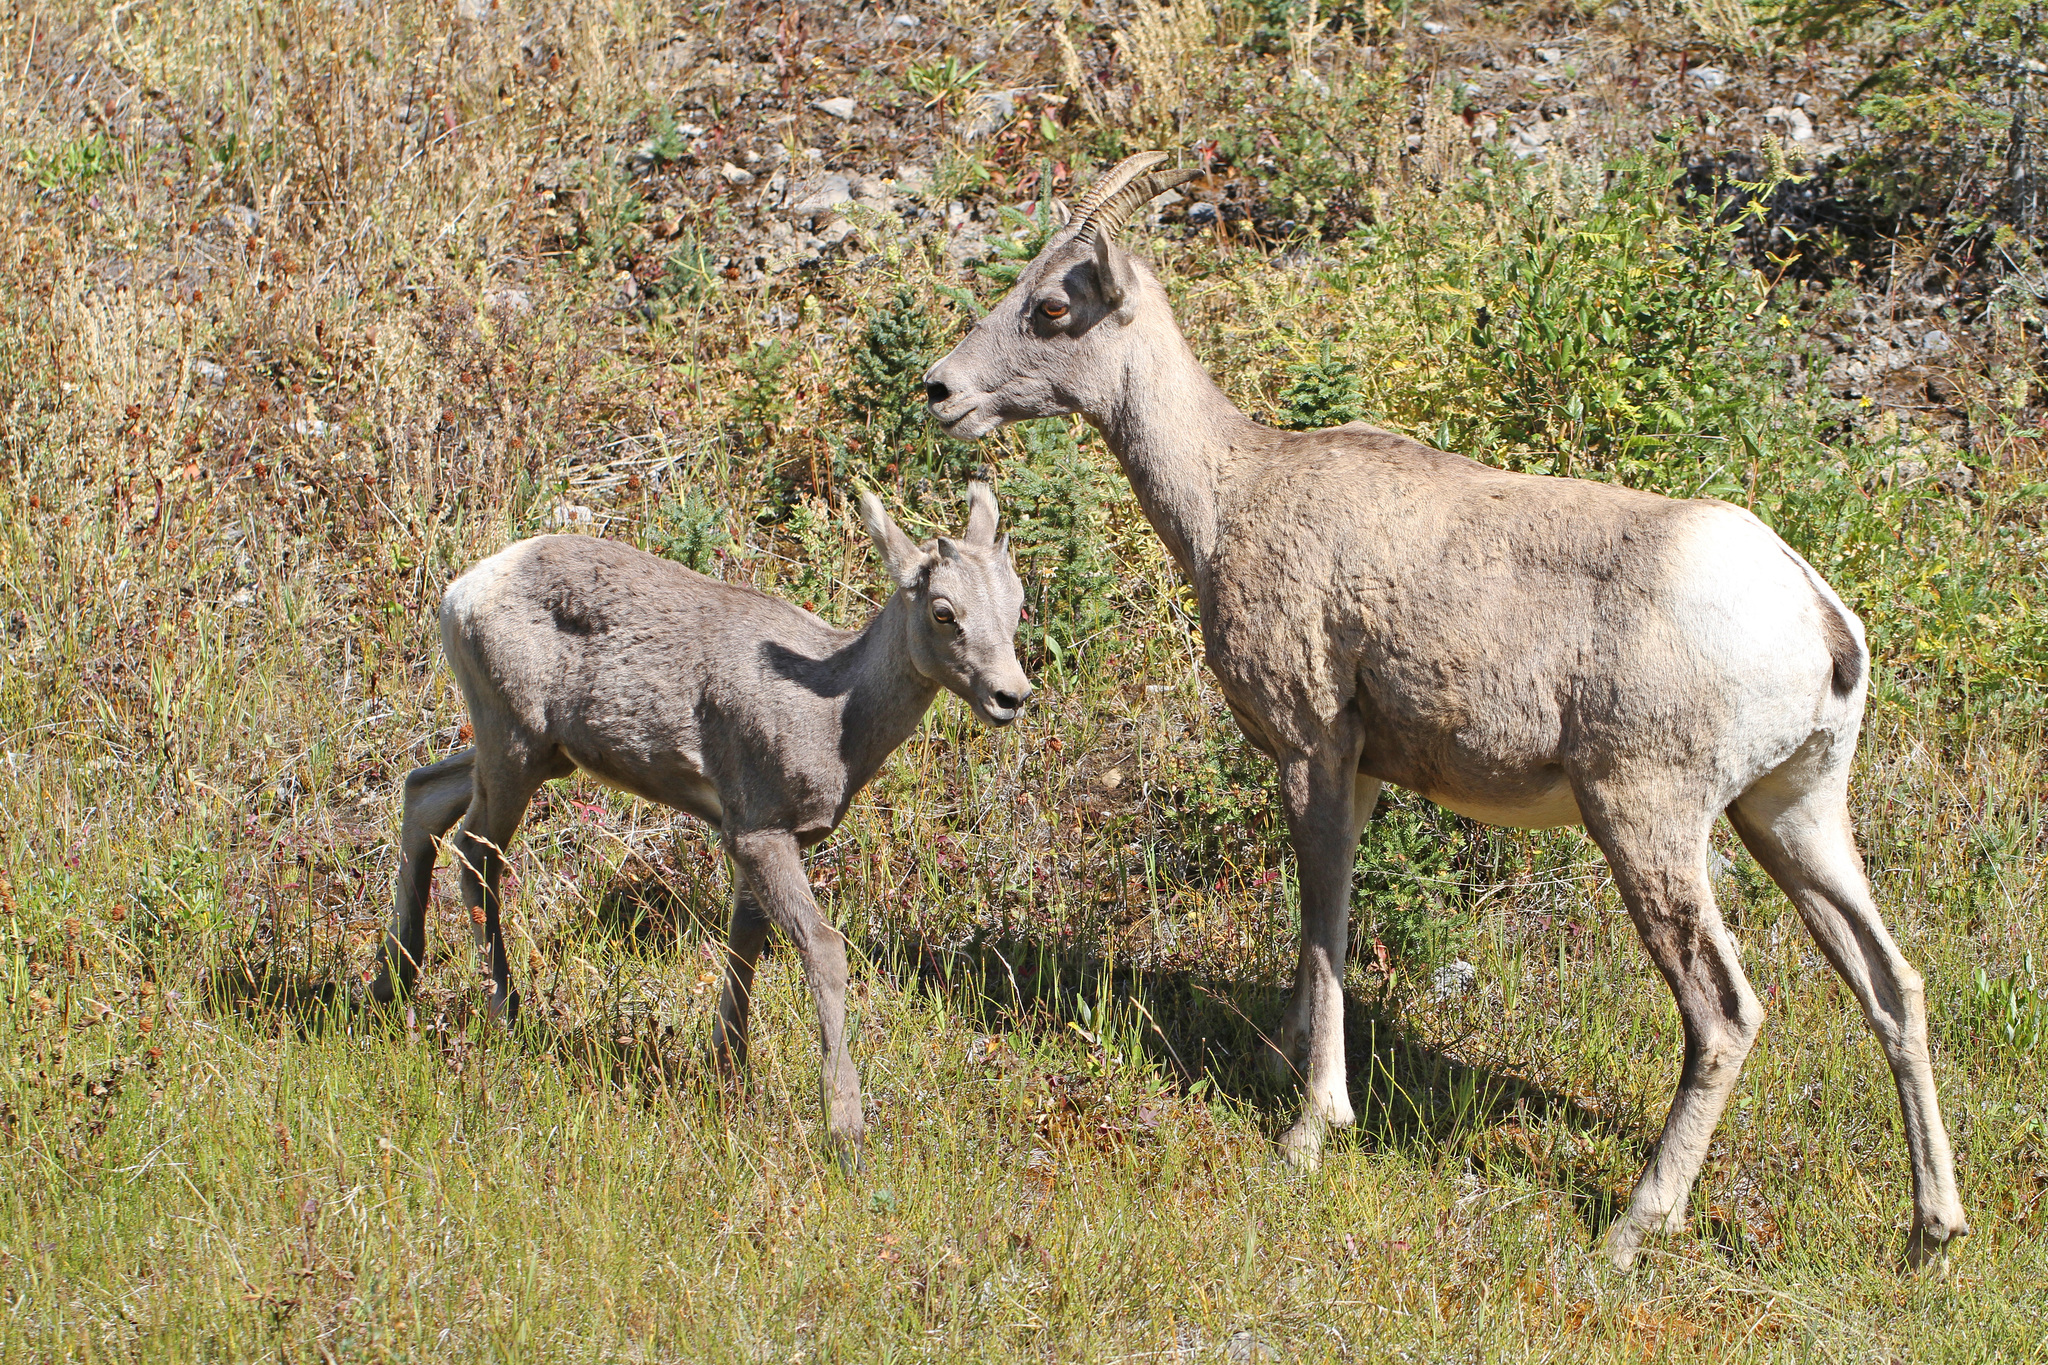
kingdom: Animalia
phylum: Chordata
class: Mammalia
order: Artiodactyla
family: Bovidae
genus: Ovis
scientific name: Ovis canadensis
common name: Bighorn sheep
